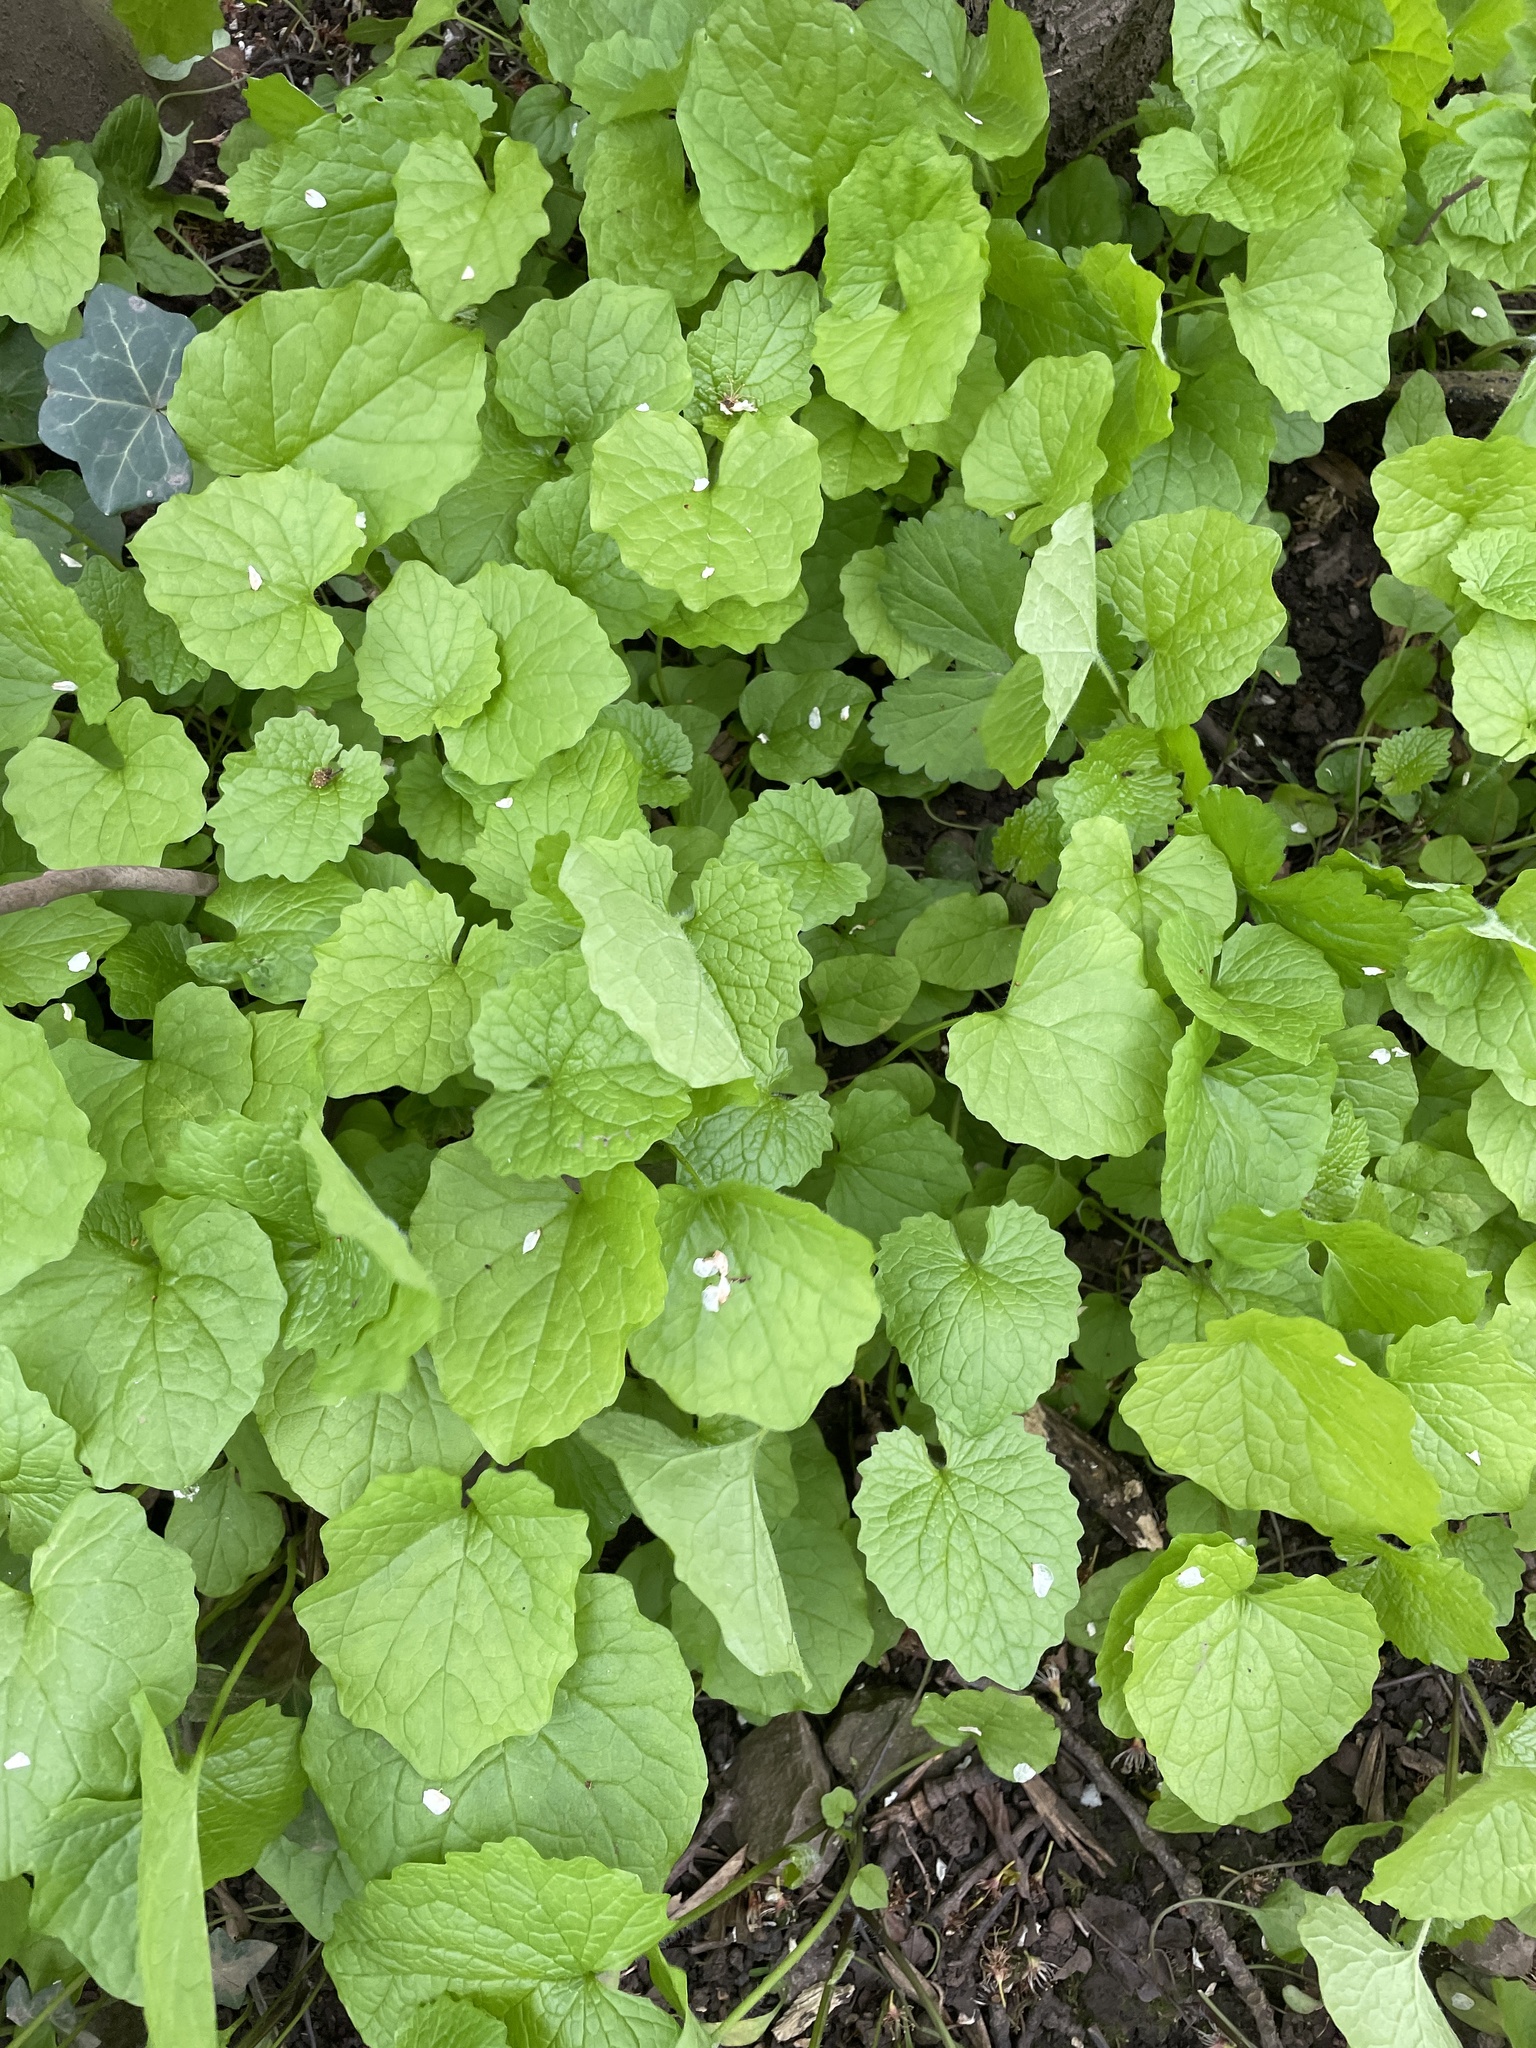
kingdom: Plantae
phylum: Tracheophyta
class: Magnoliopsida
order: Asterales
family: Asteraceae
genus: Tussilago
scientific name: Tussilago farfara
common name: Coltsfoot
